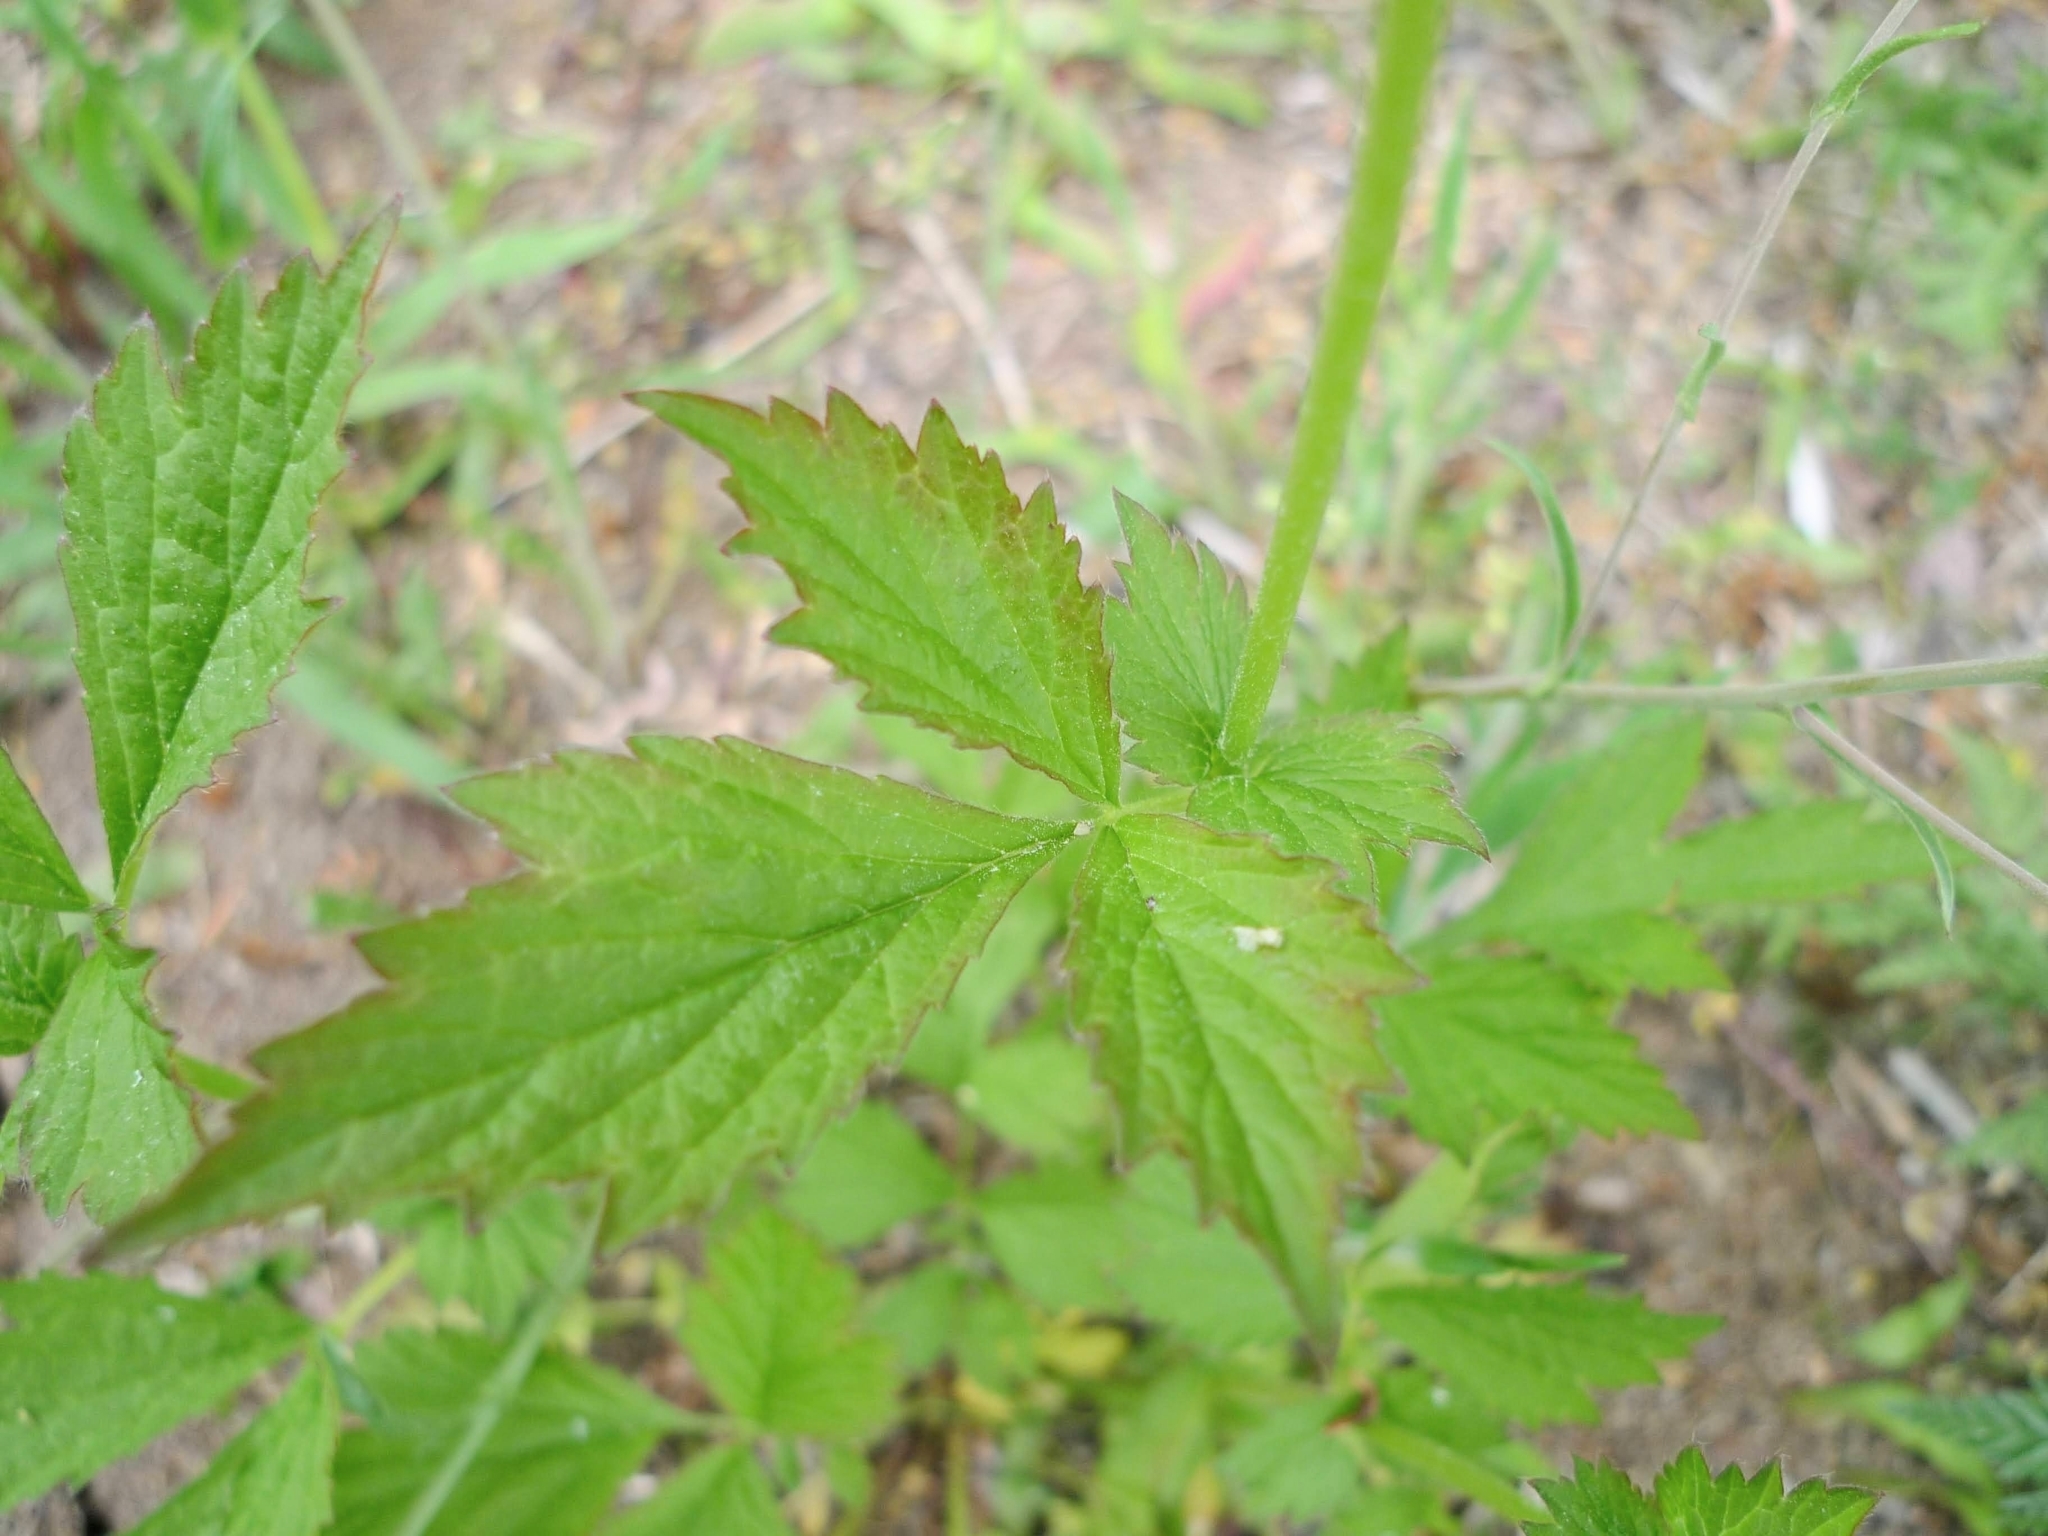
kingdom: Plantae
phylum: Tracheophyta
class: Magnoliopsida
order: Rosales
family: Rosaceae
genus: Geum
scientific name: Geum urbanum
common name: Wood avens
